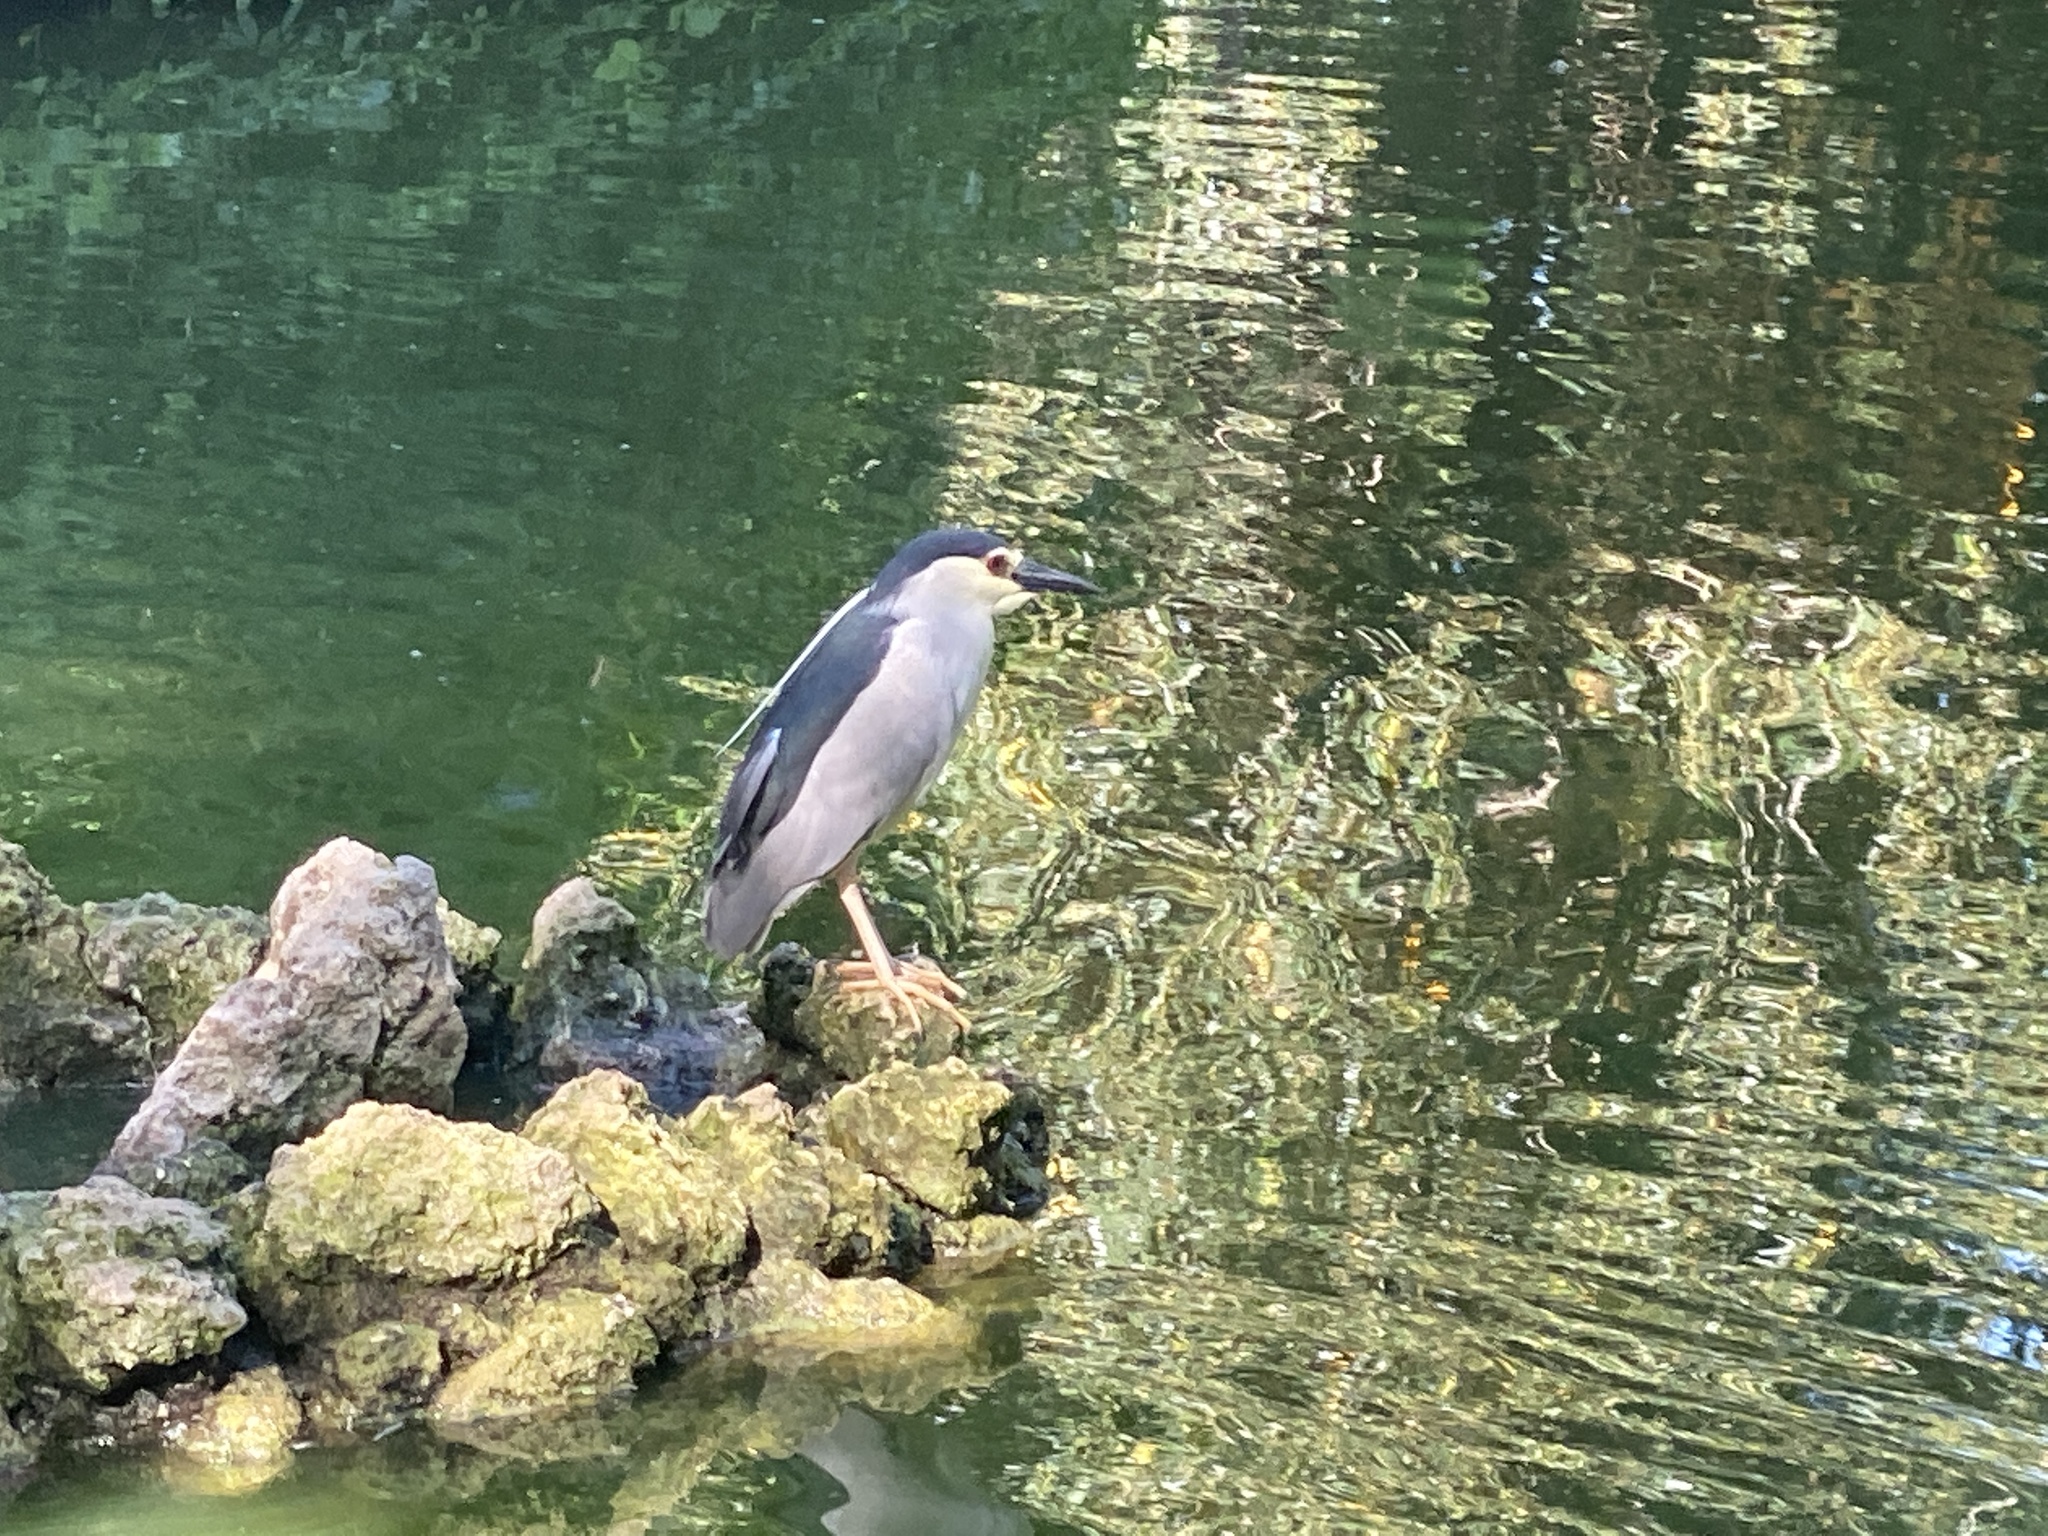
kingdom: Animalia
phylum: Chordata
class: Aves
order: Pelecaniformes
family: Ardeidae
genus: Nycticorax
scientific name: Nycticorax nycticorax
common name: Black-crowned night heron
